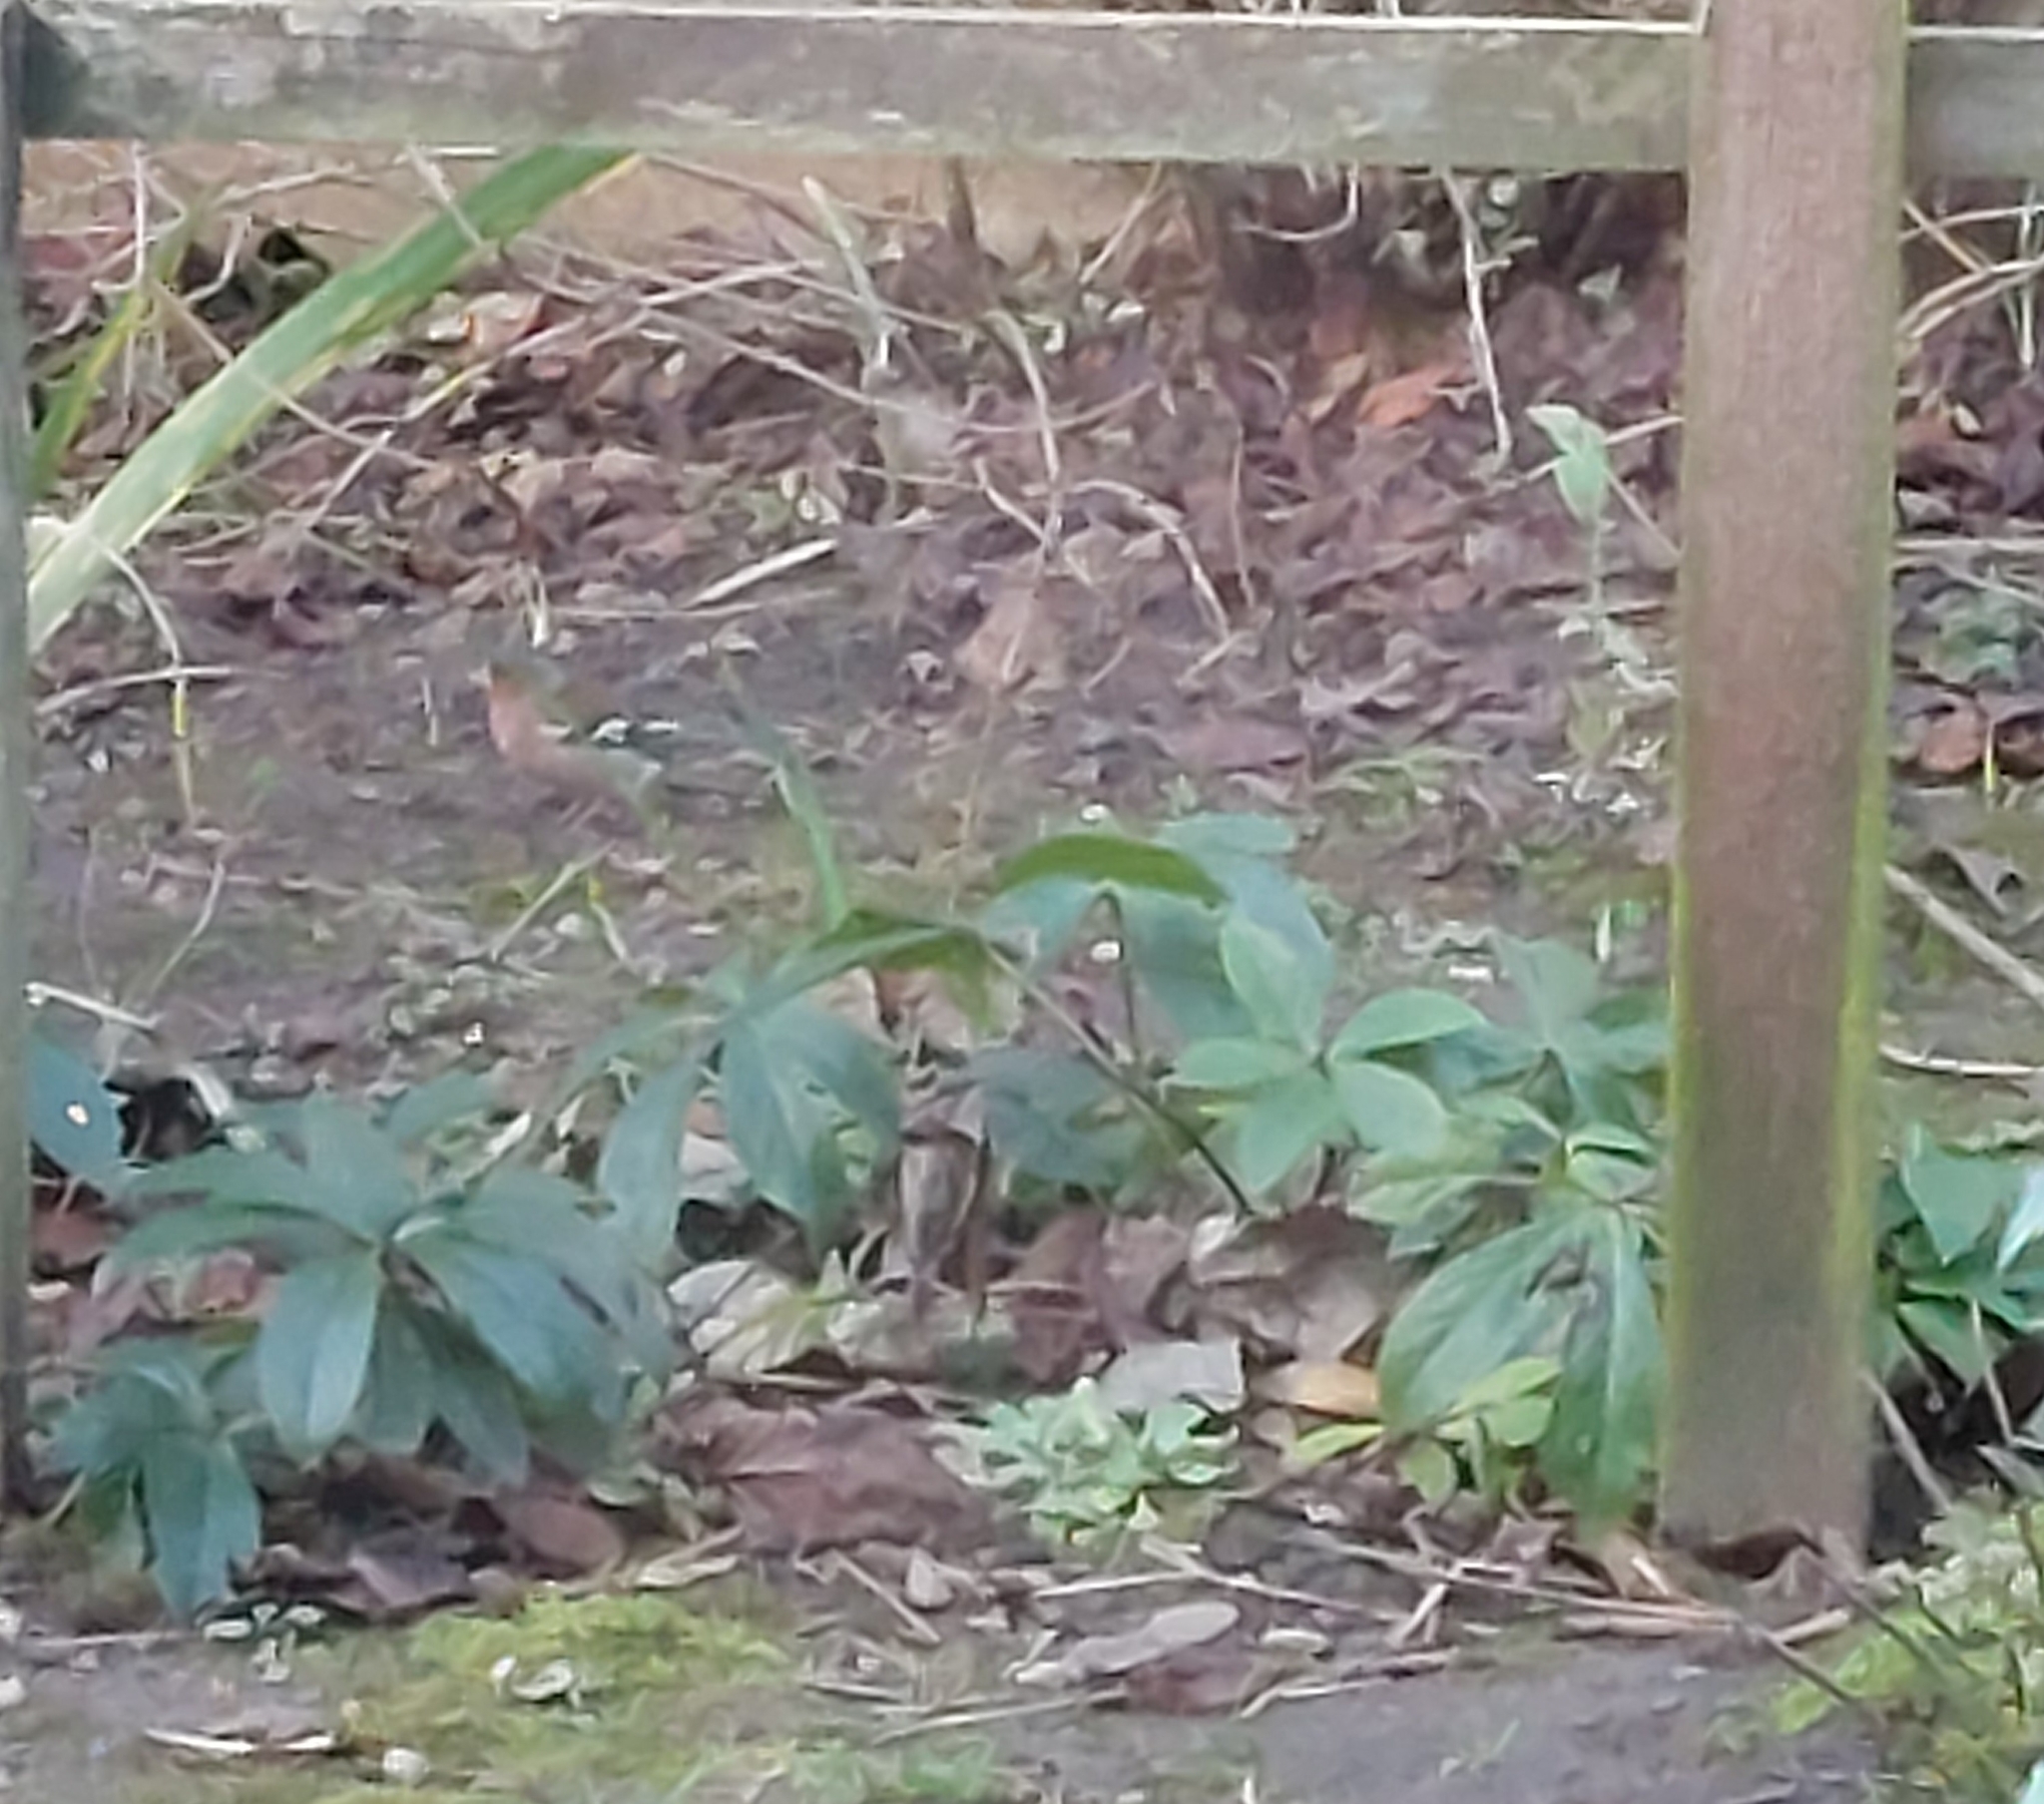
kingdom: Animalia
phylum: Chordata
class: Aves
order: Passeriformes
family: Fringillidae
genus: Fringilla
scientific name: Fringilla coelebs
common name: Common chaffinch
